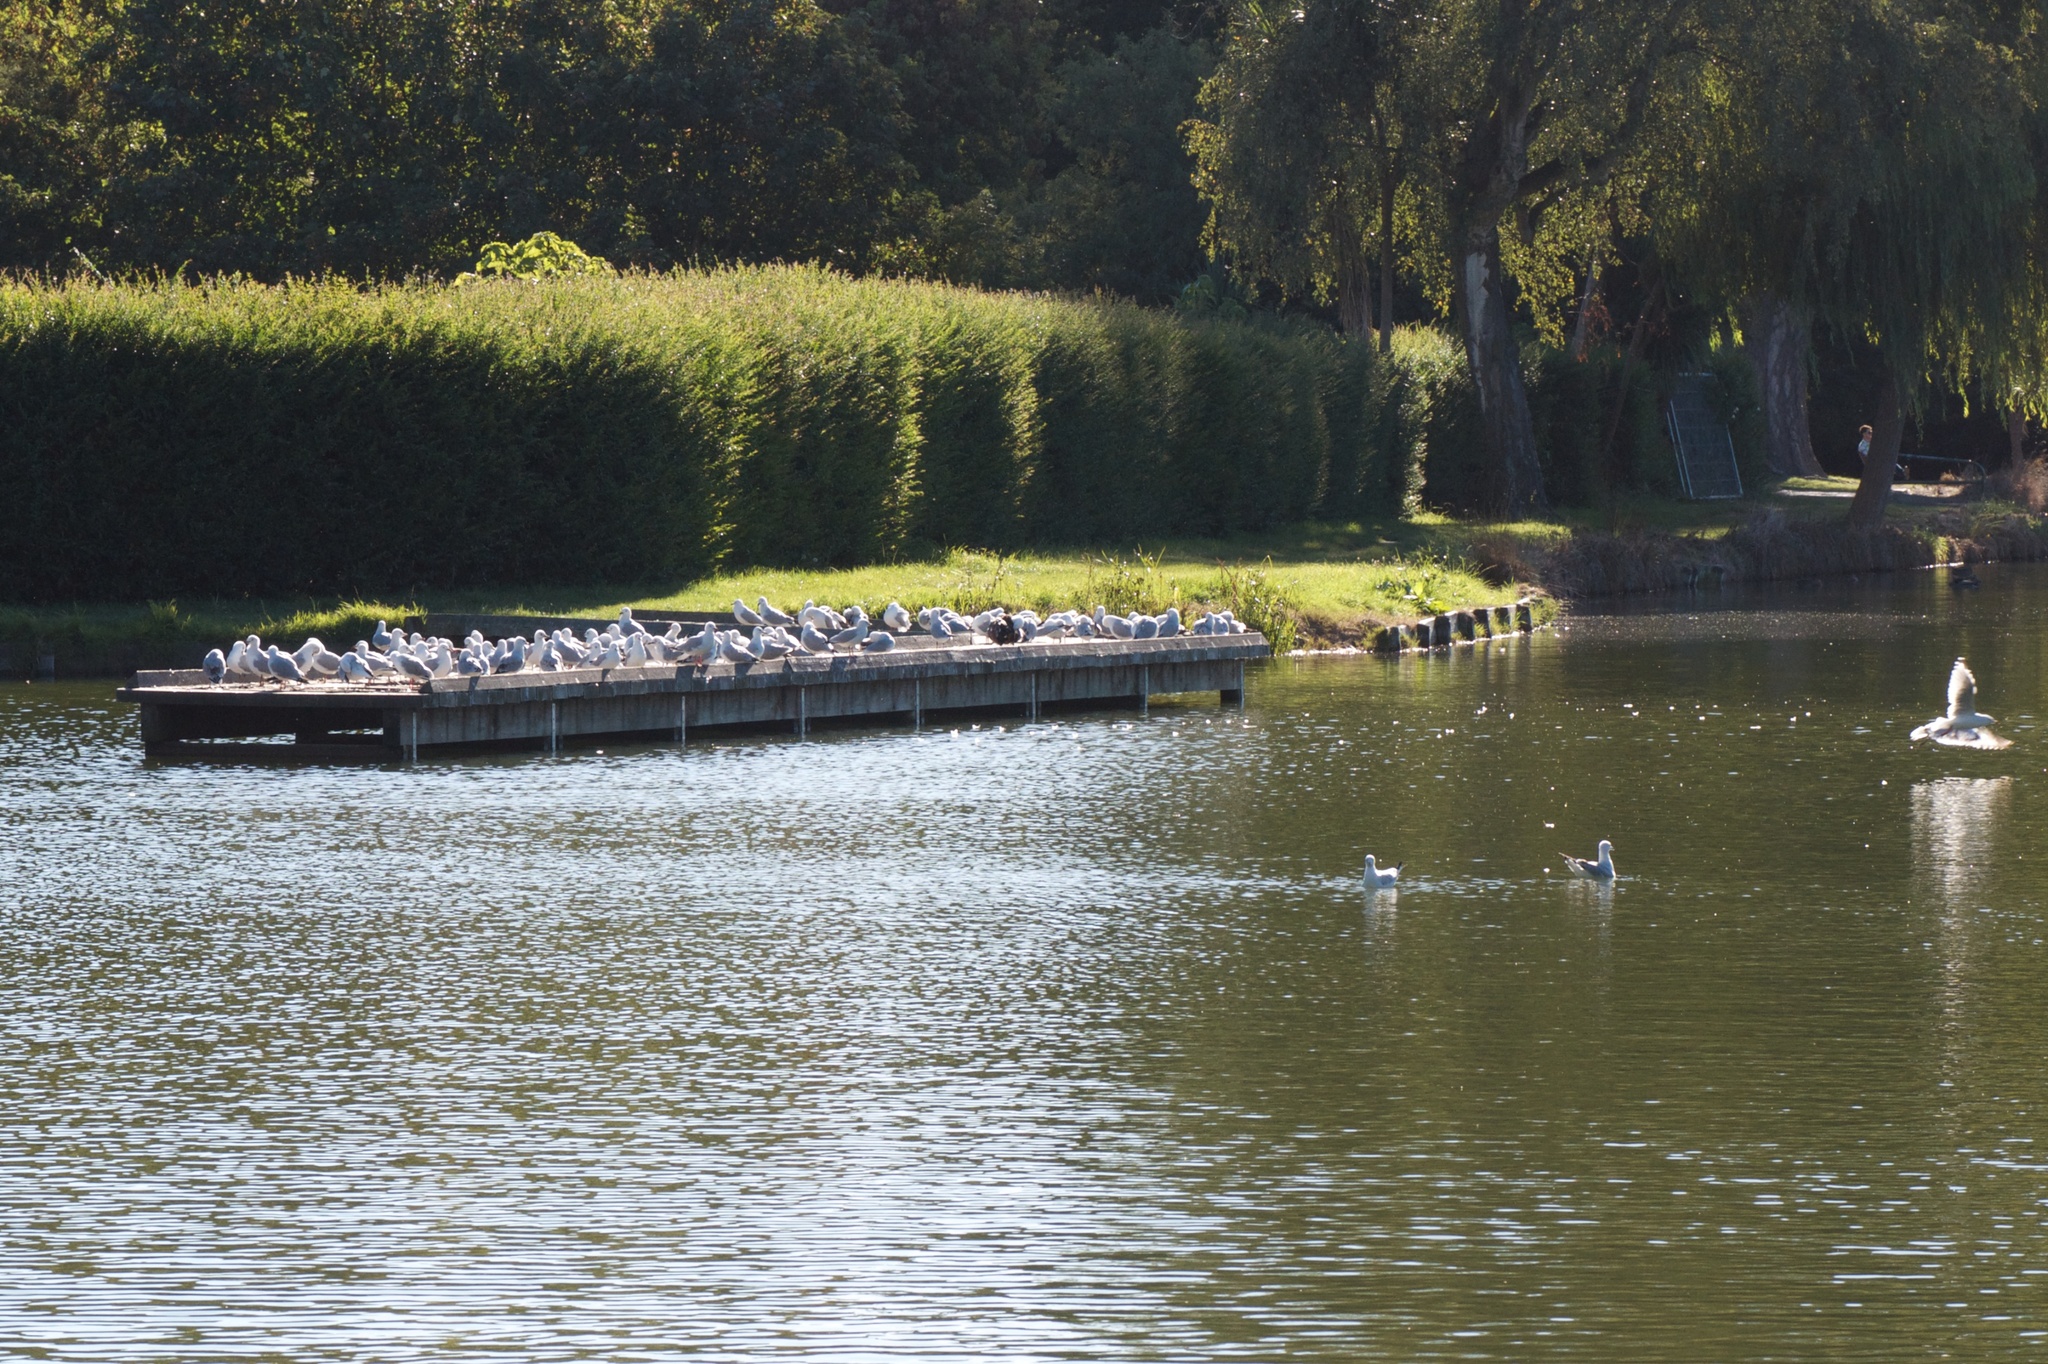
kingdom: Animalia
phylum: Chordata
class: Aves
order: Charadriiformes
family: Laridae
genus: Chroicocephalus
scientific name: Chroicocephalus novaehollandiae
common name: Silver gull
